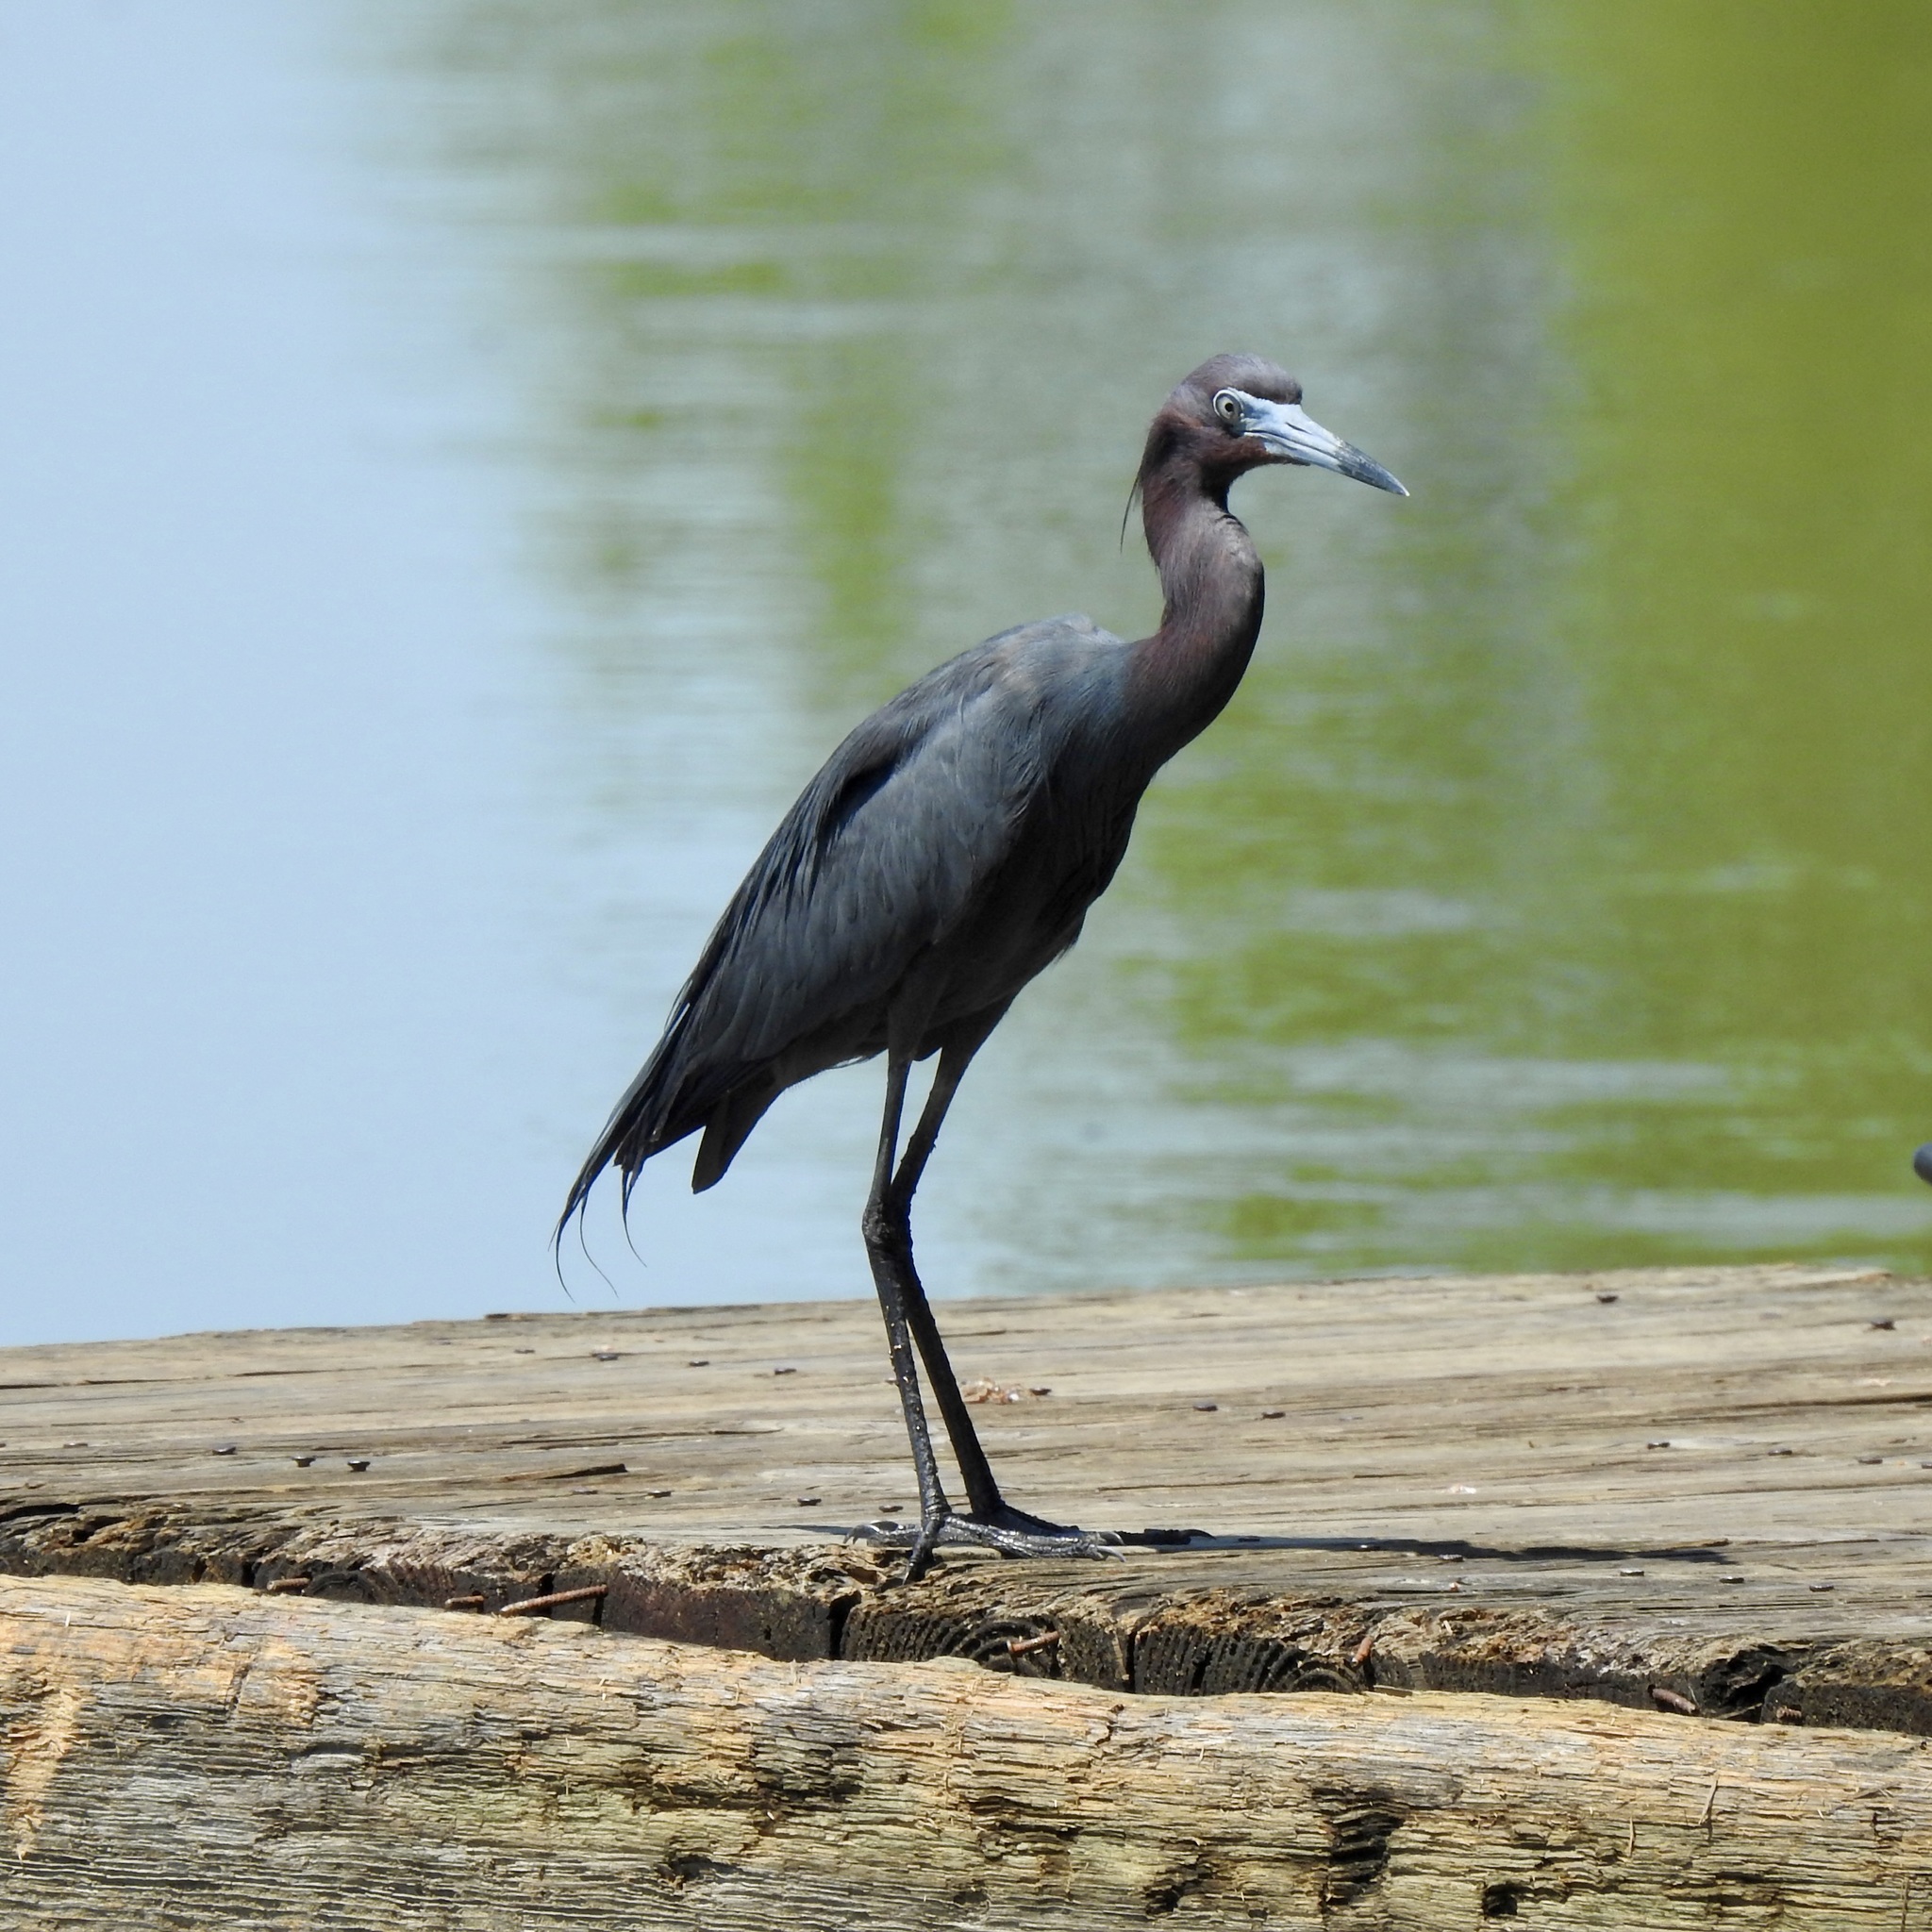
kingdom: Animalia
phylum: Chordata
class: Aves
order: Pelecaniformes
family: Ardeidae
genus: Egretta
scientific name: Egretta caerulea
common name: Little blue heron
